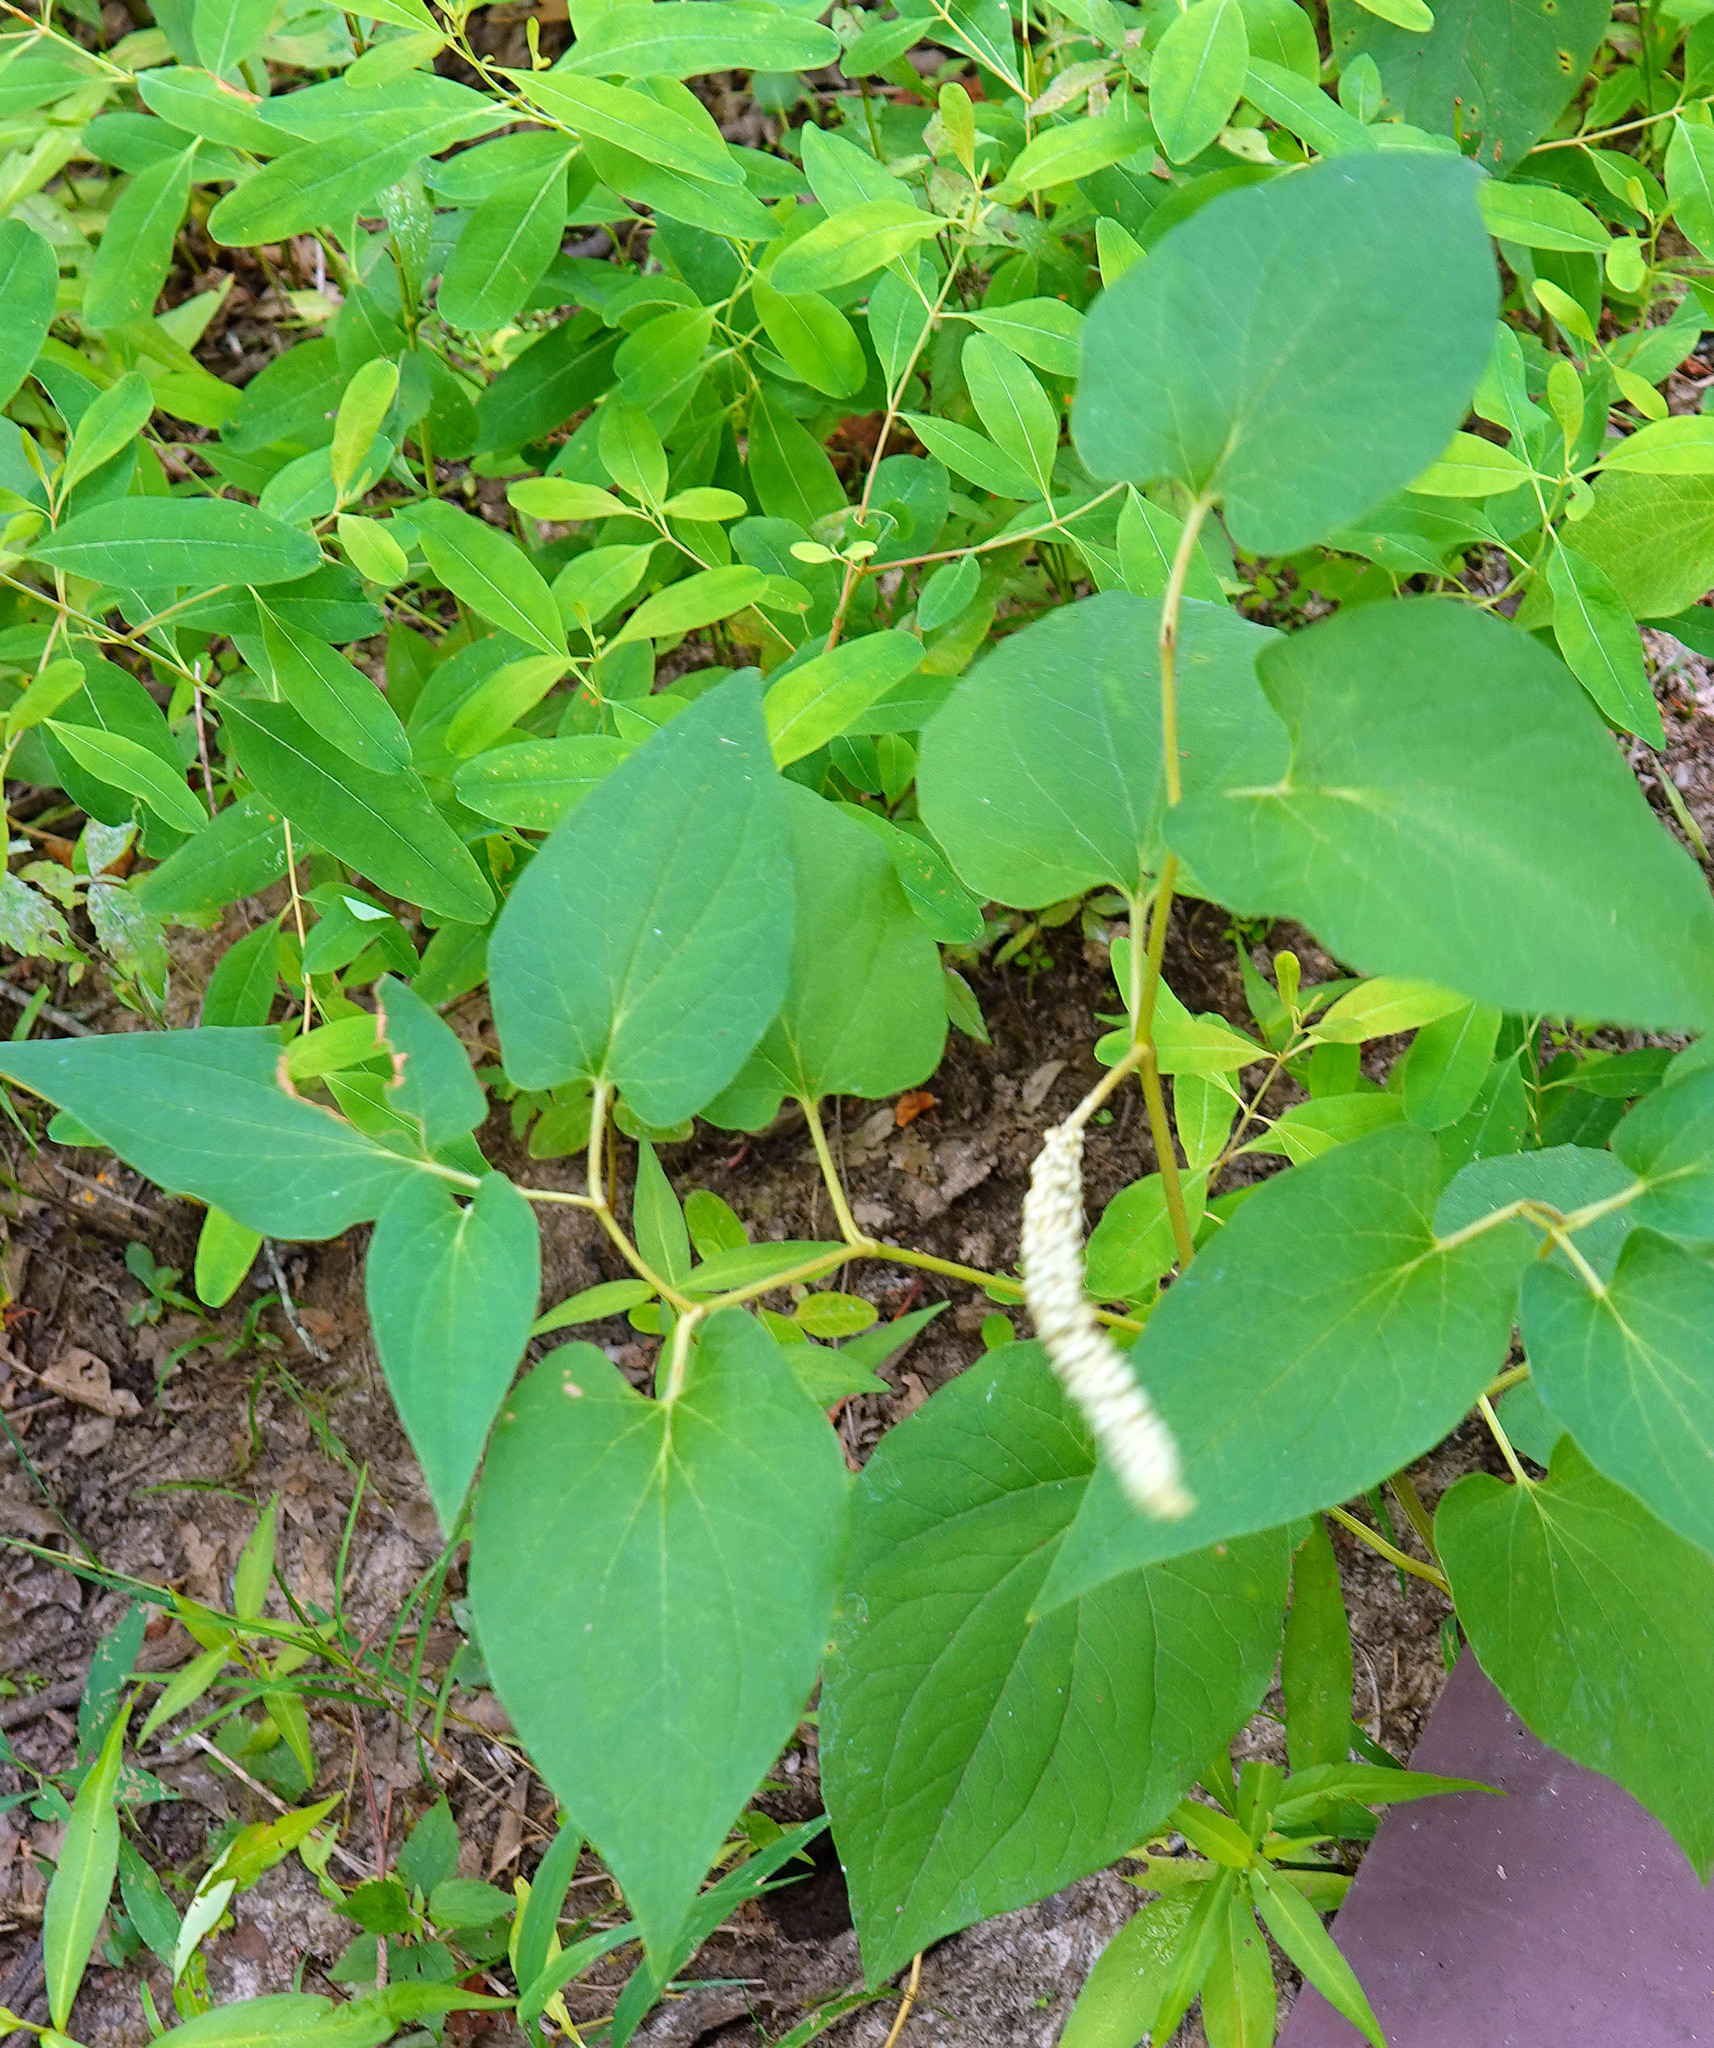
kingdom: Plantae
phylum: Tracheophyta
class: Magnoliopsida
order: Piperales
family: Saururaceae
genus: Saururus
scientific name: Saururus cernuus
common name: Lizard's-tail
